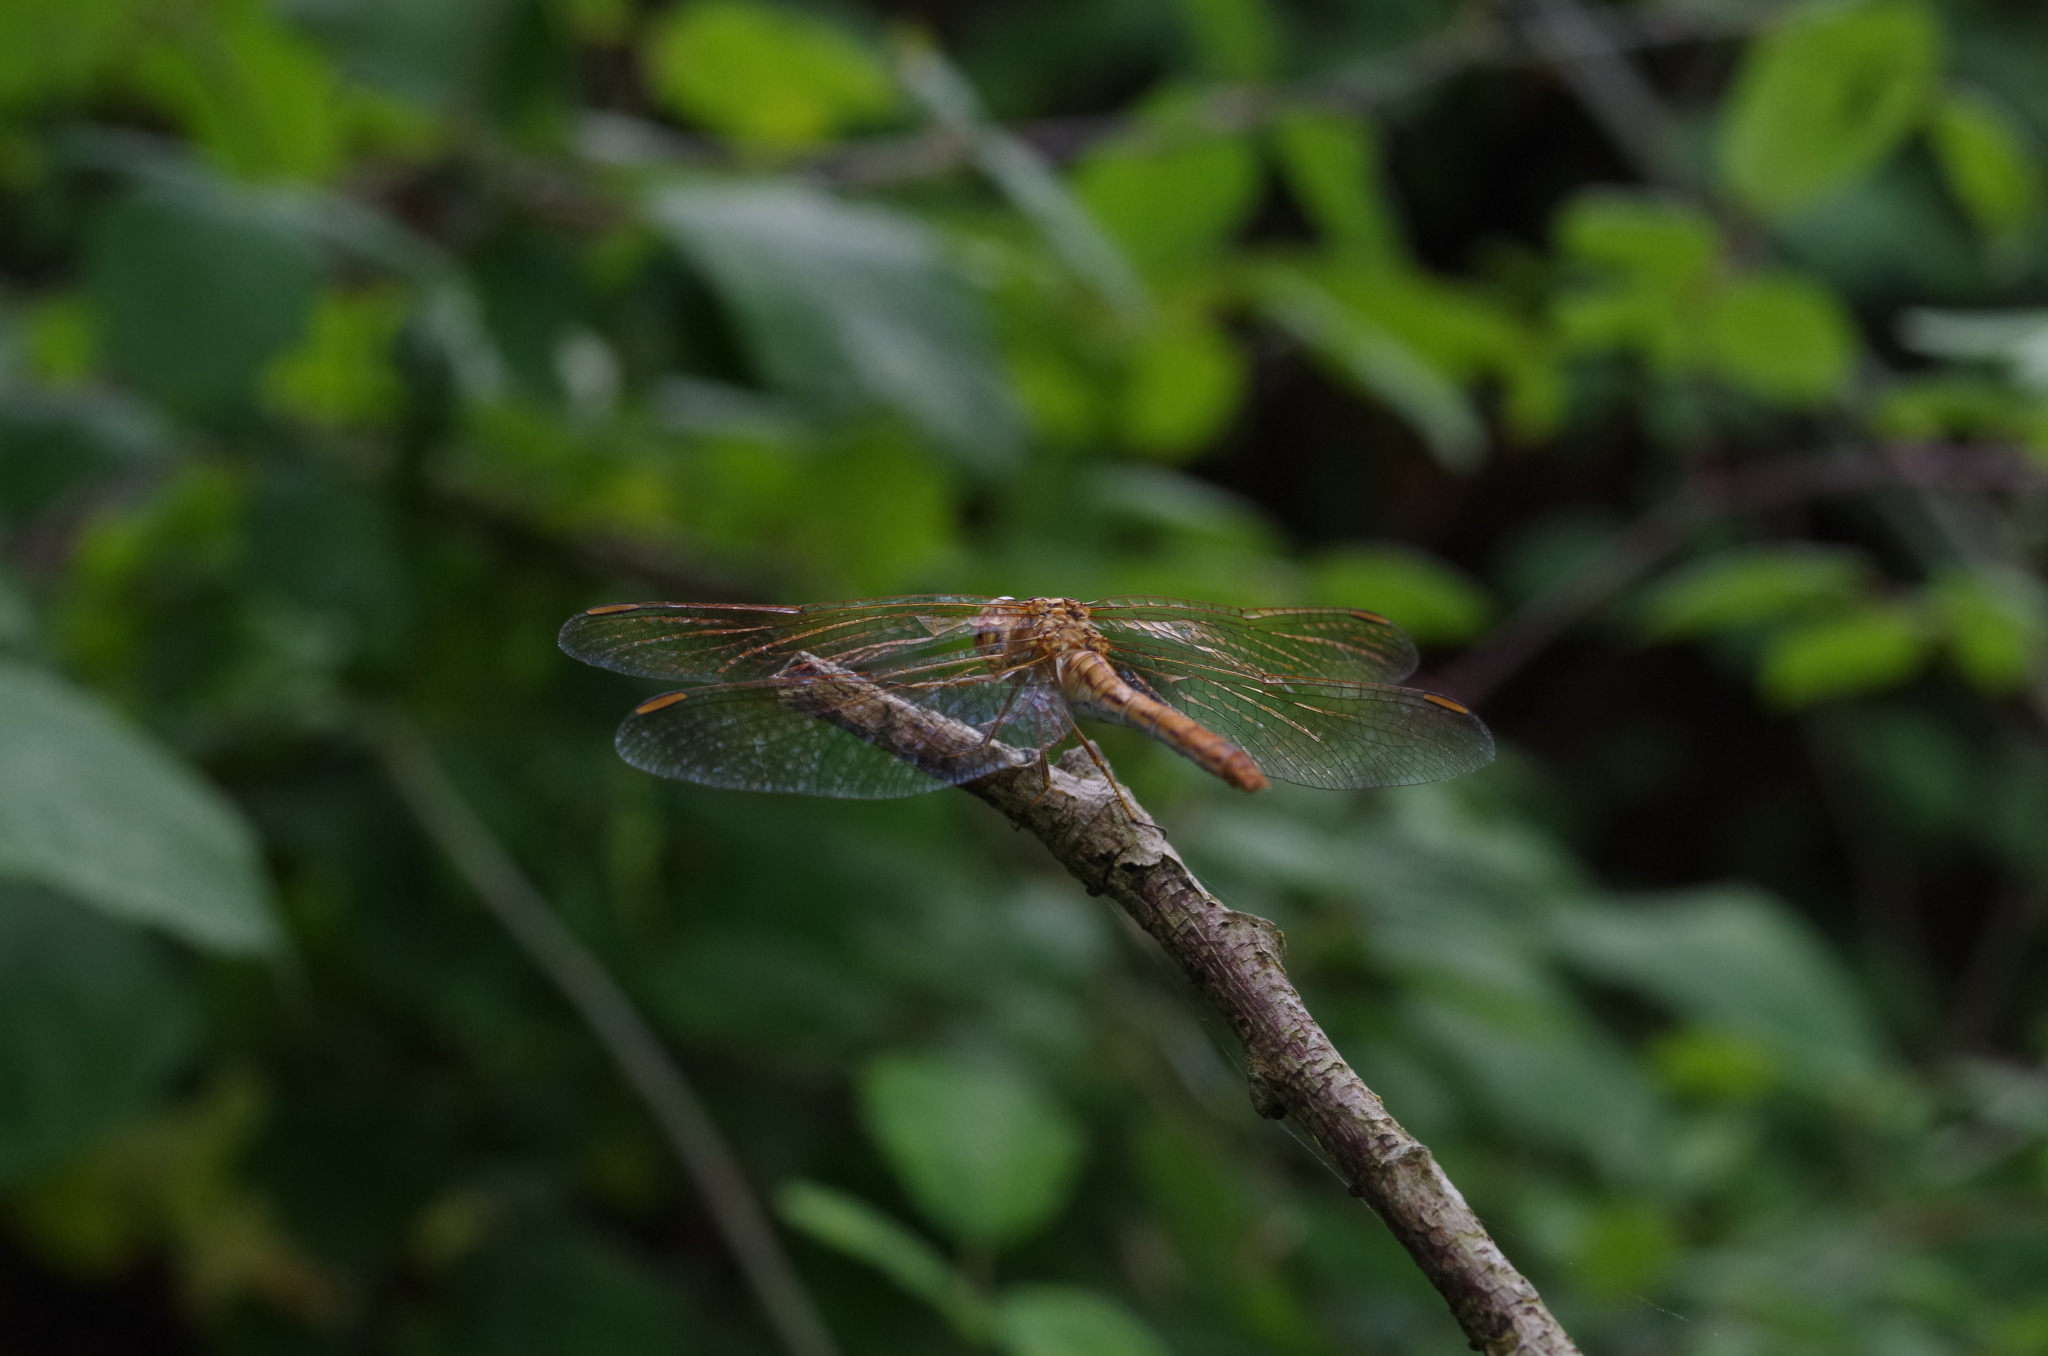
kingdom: Animalia
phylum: Arthropoda
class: Insecta
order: Odonata
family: Libellulidae
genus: Sympetrum
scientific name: Sympetrum meridionale
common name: Southern darter
